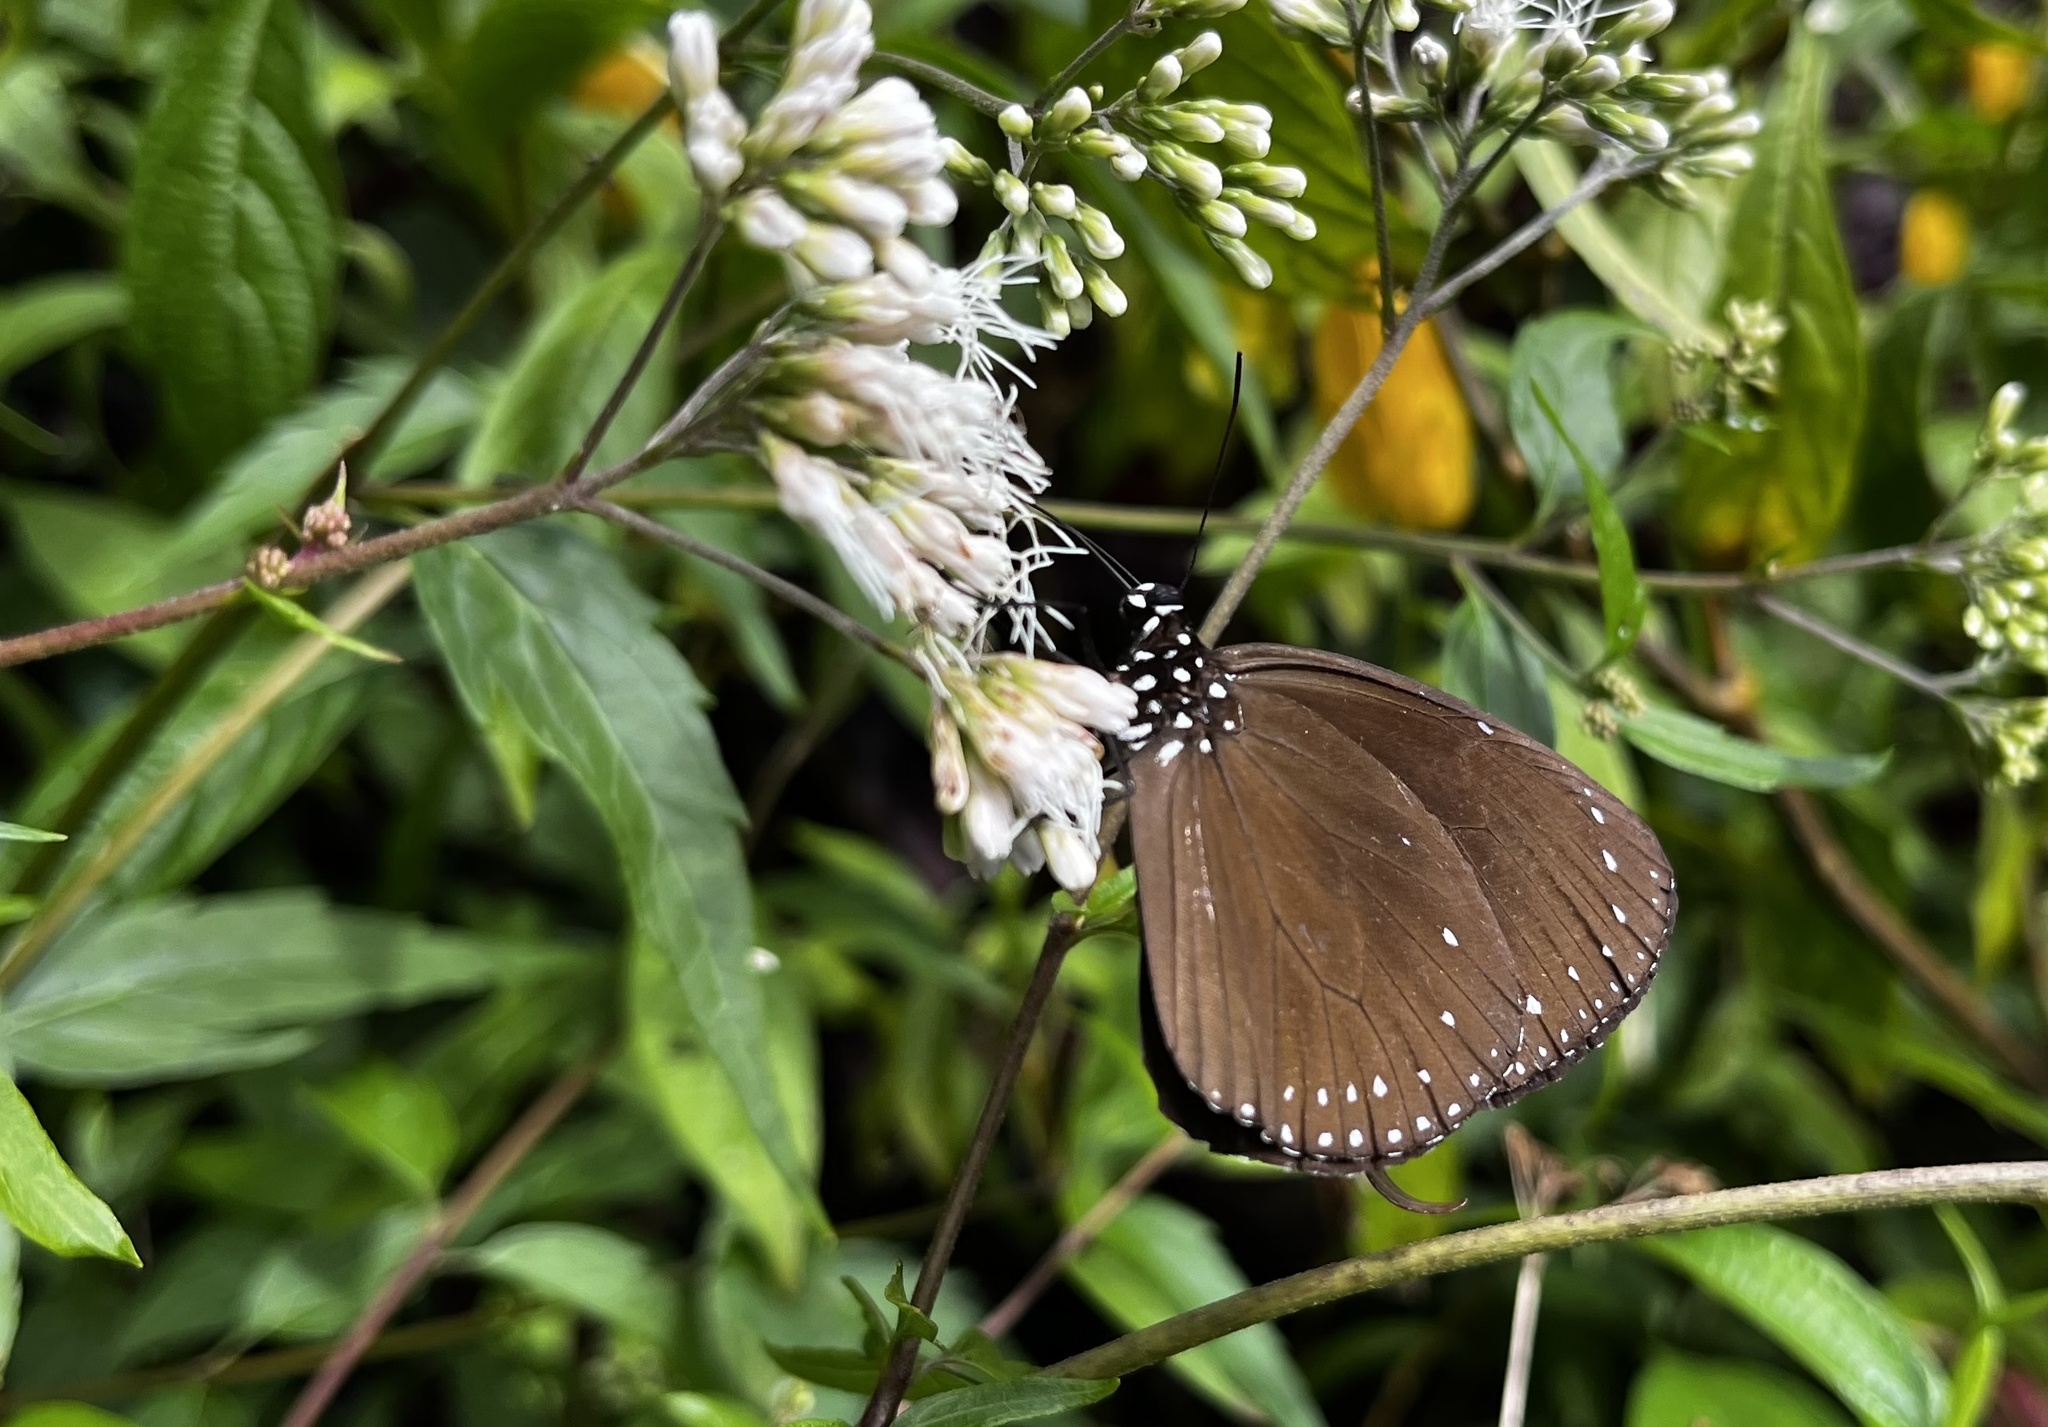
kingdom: Animalia
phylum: Arthropoda
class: Insecta
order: Lepidoptera
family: Nymphalidae
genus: Euploea
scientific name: Euploea tulliolus
